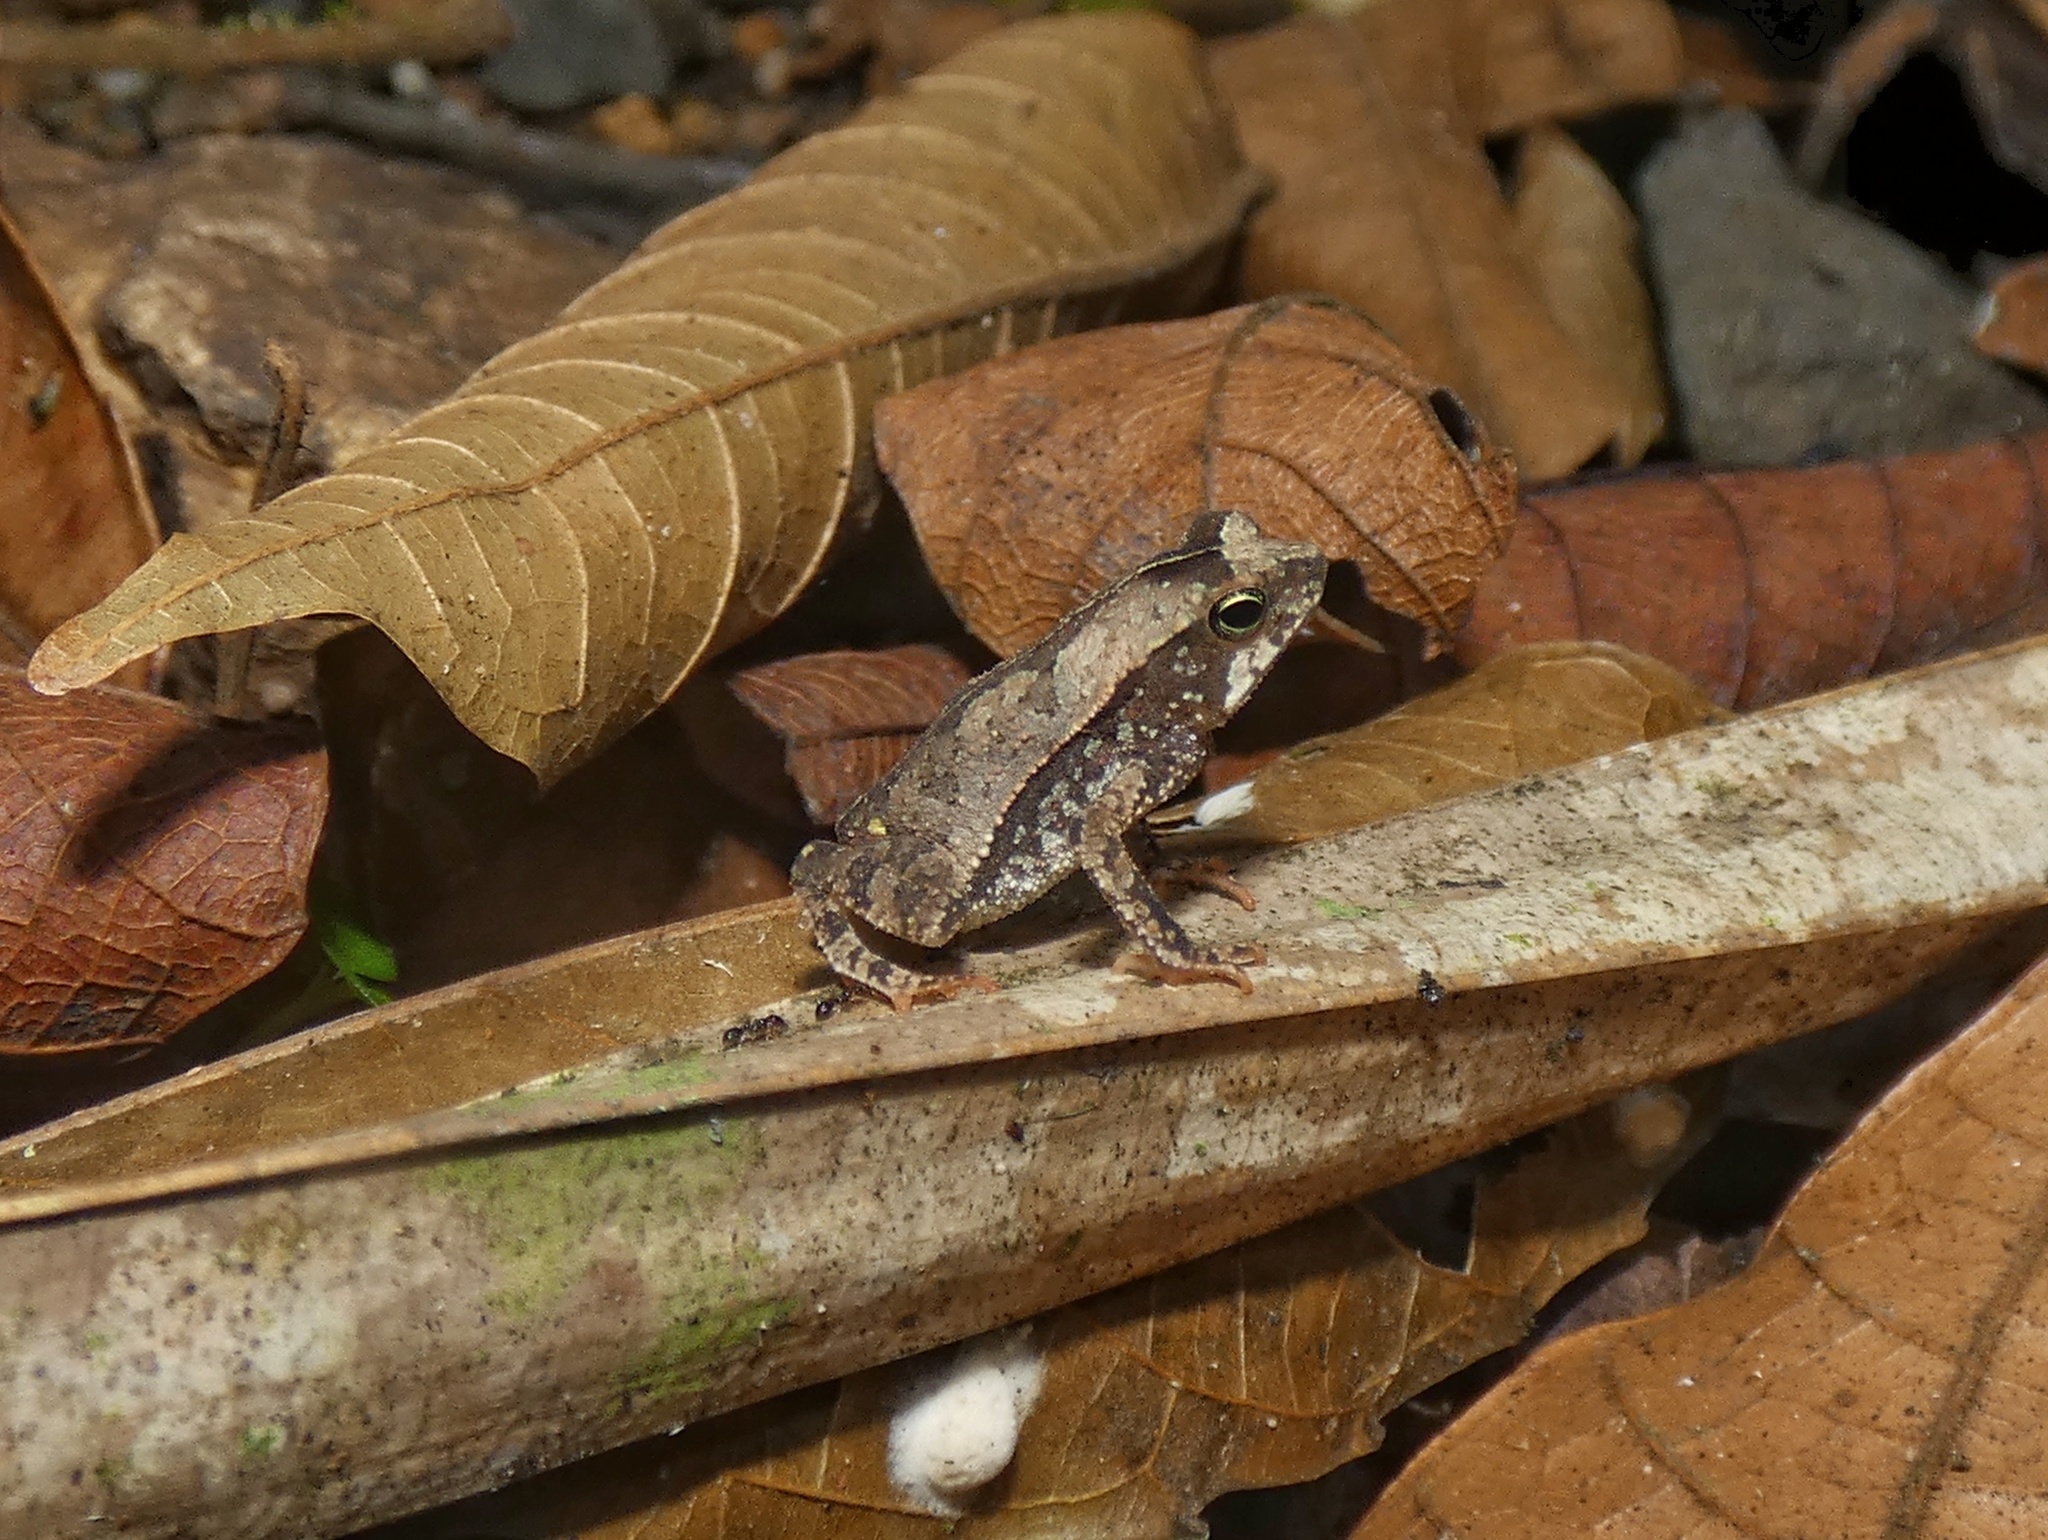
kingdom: Animalia
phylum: Chordata
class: Amphibia
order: Anura
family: Bufonidae
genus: Rhinella
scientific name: Rhinella alata
